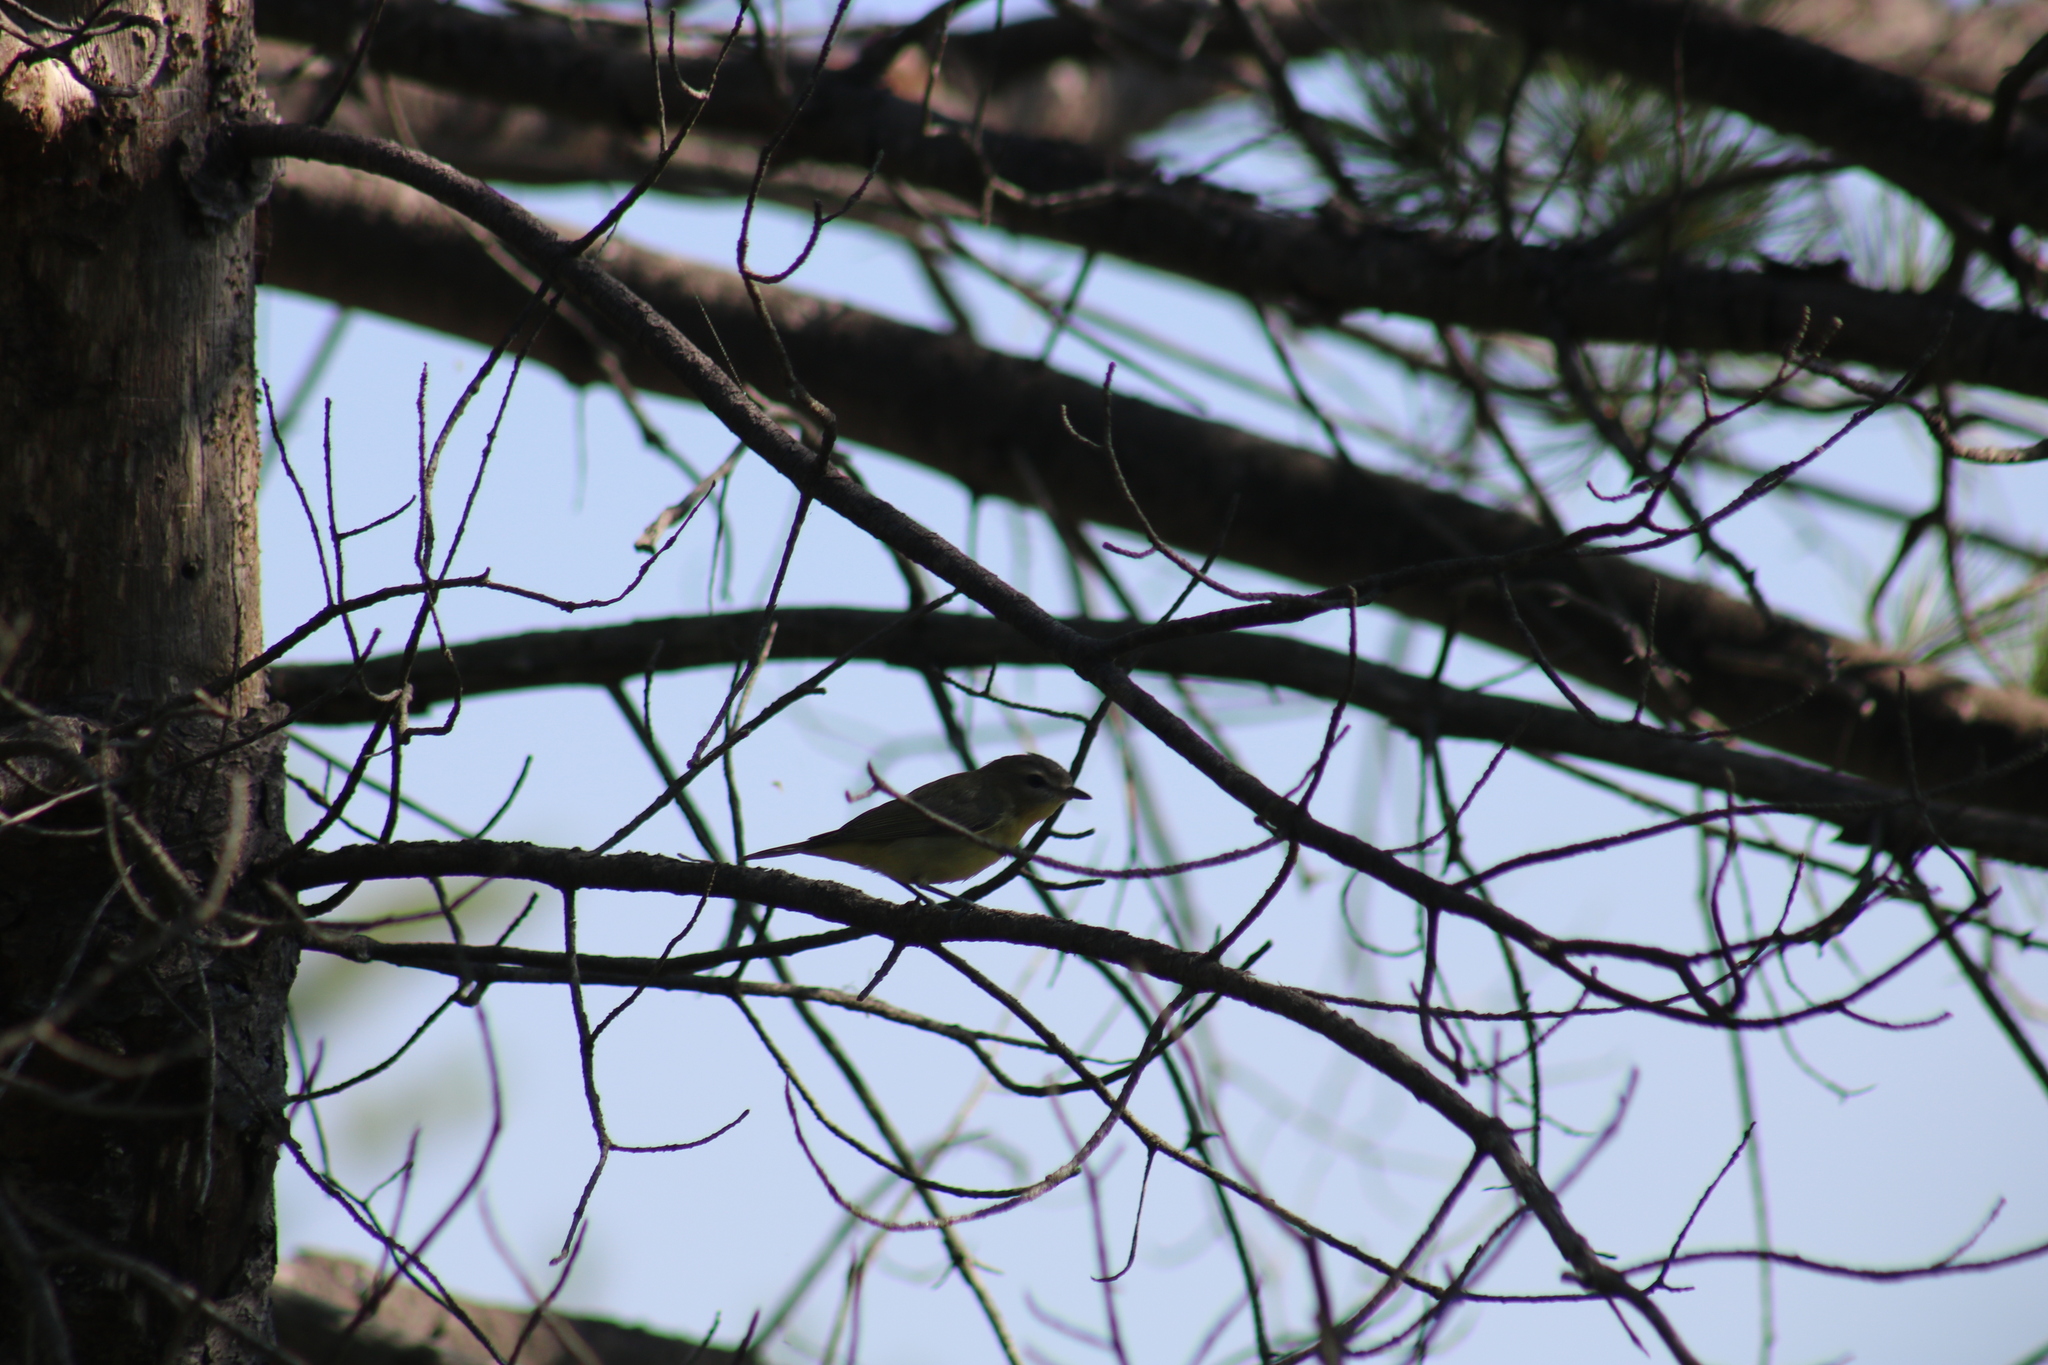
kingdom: Animalia
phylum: Chordata
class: Aves
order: Passeriformes
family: Vireonidae
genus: Vireo
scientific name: Vireo philadelphicus
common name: Philadelphia vireo
